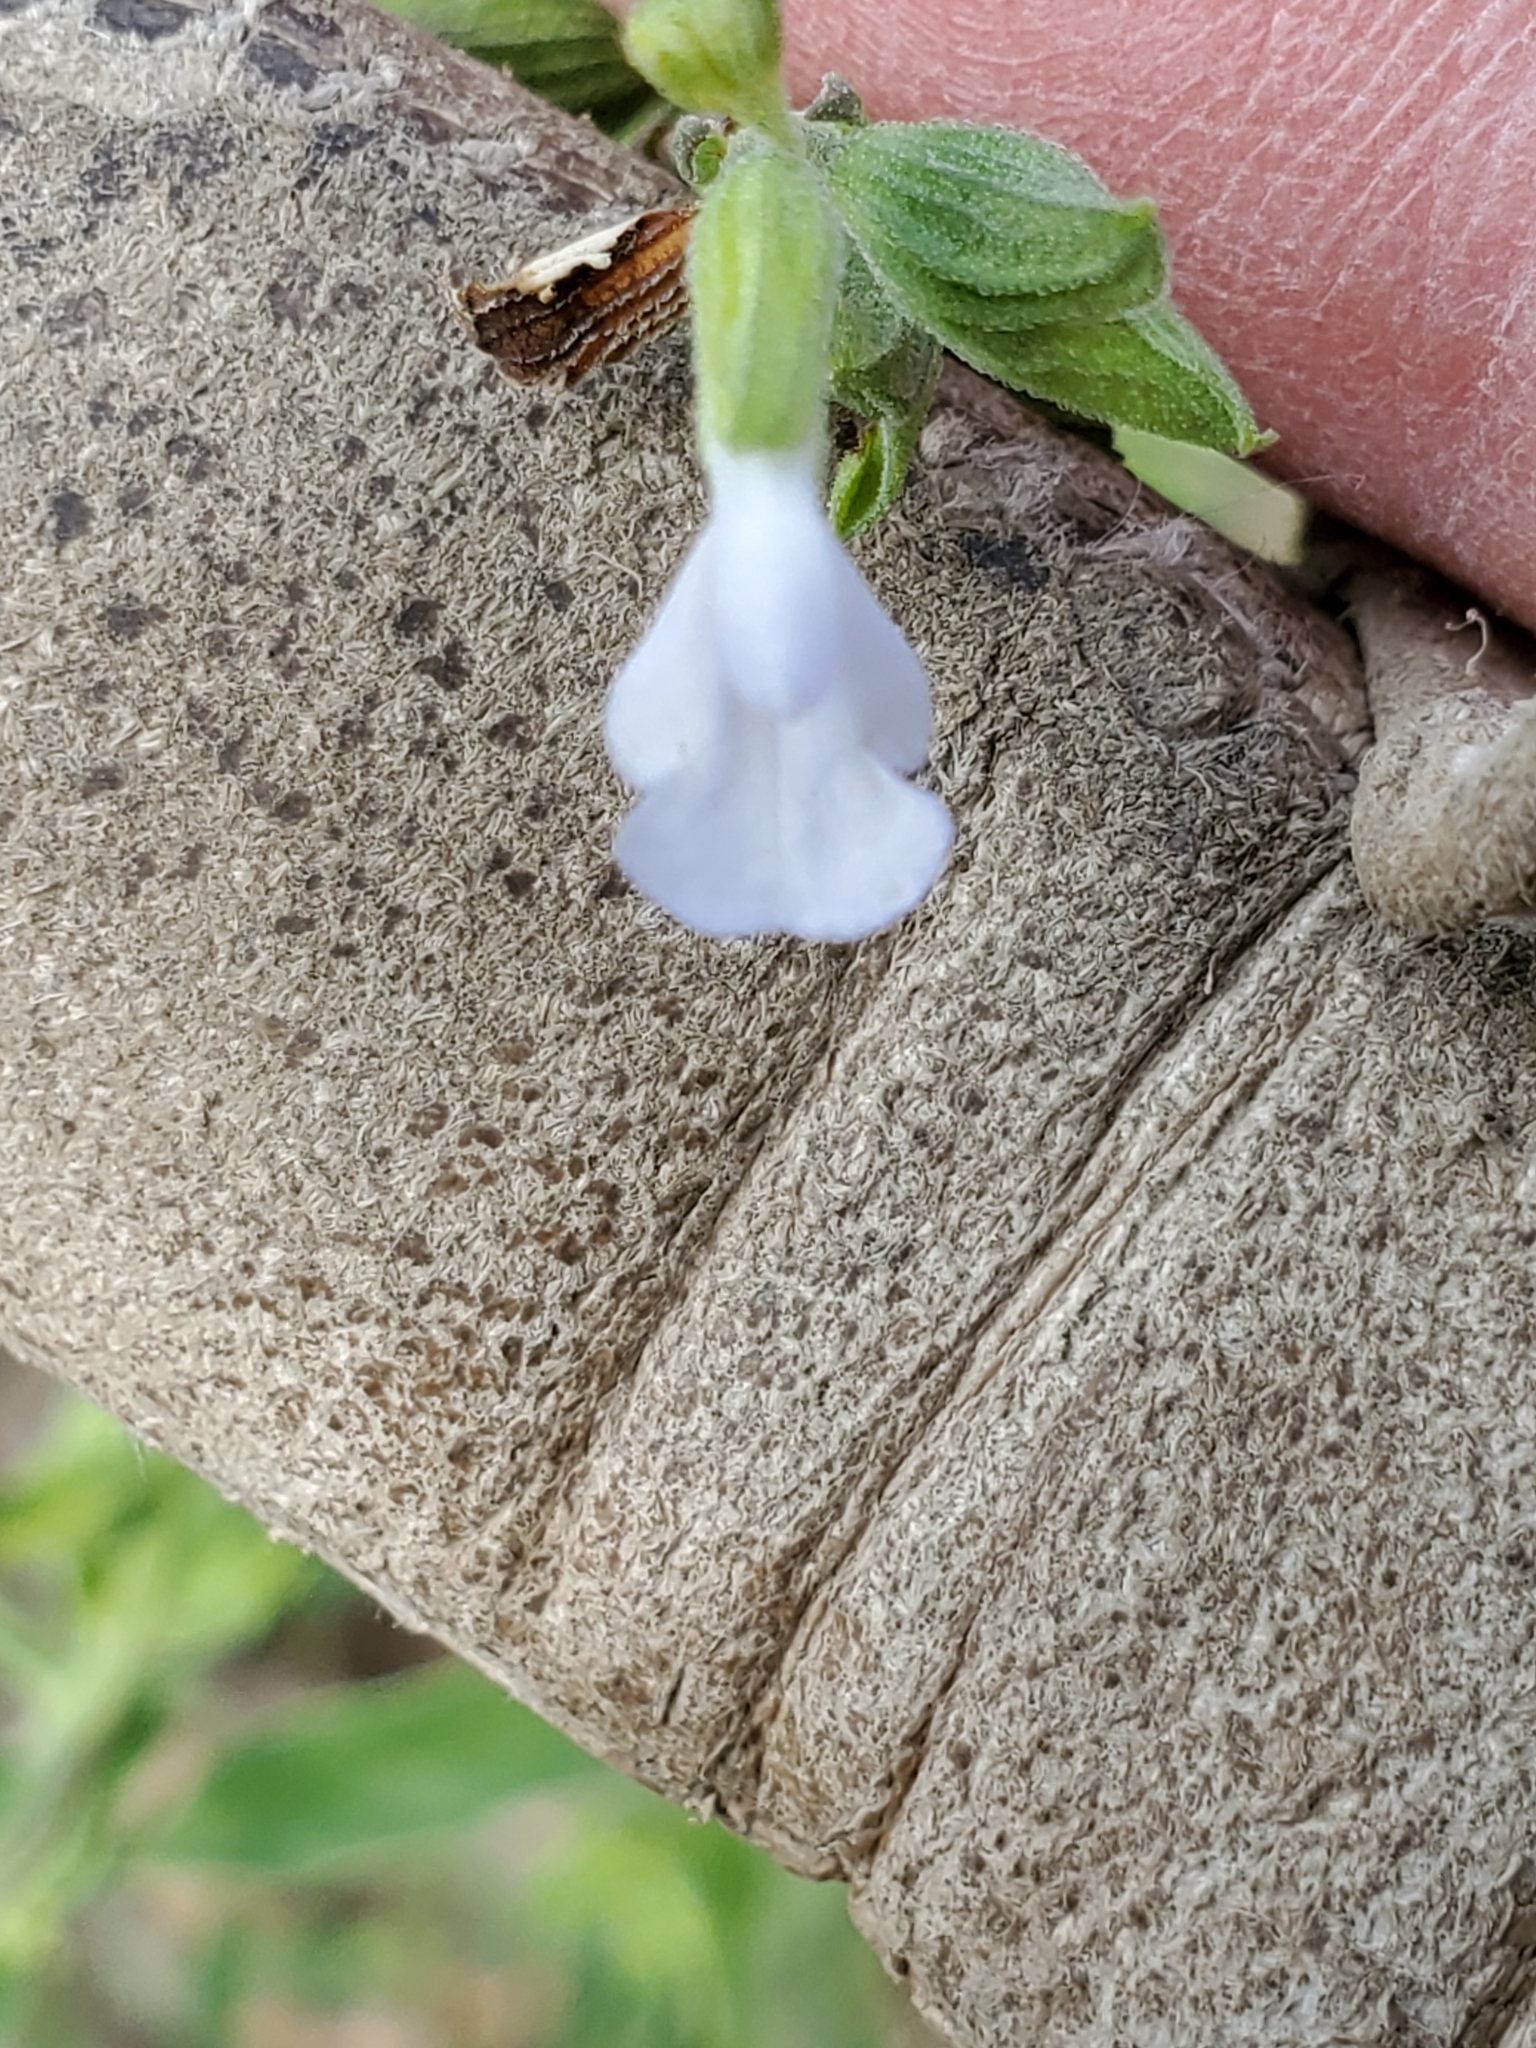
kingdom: Plantae
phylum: Tracheophyta
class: Magnoliopsida
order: Lamiales
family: Lamiaceae
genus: Salvia
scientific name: Salvia reflexa
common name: Mintweed
